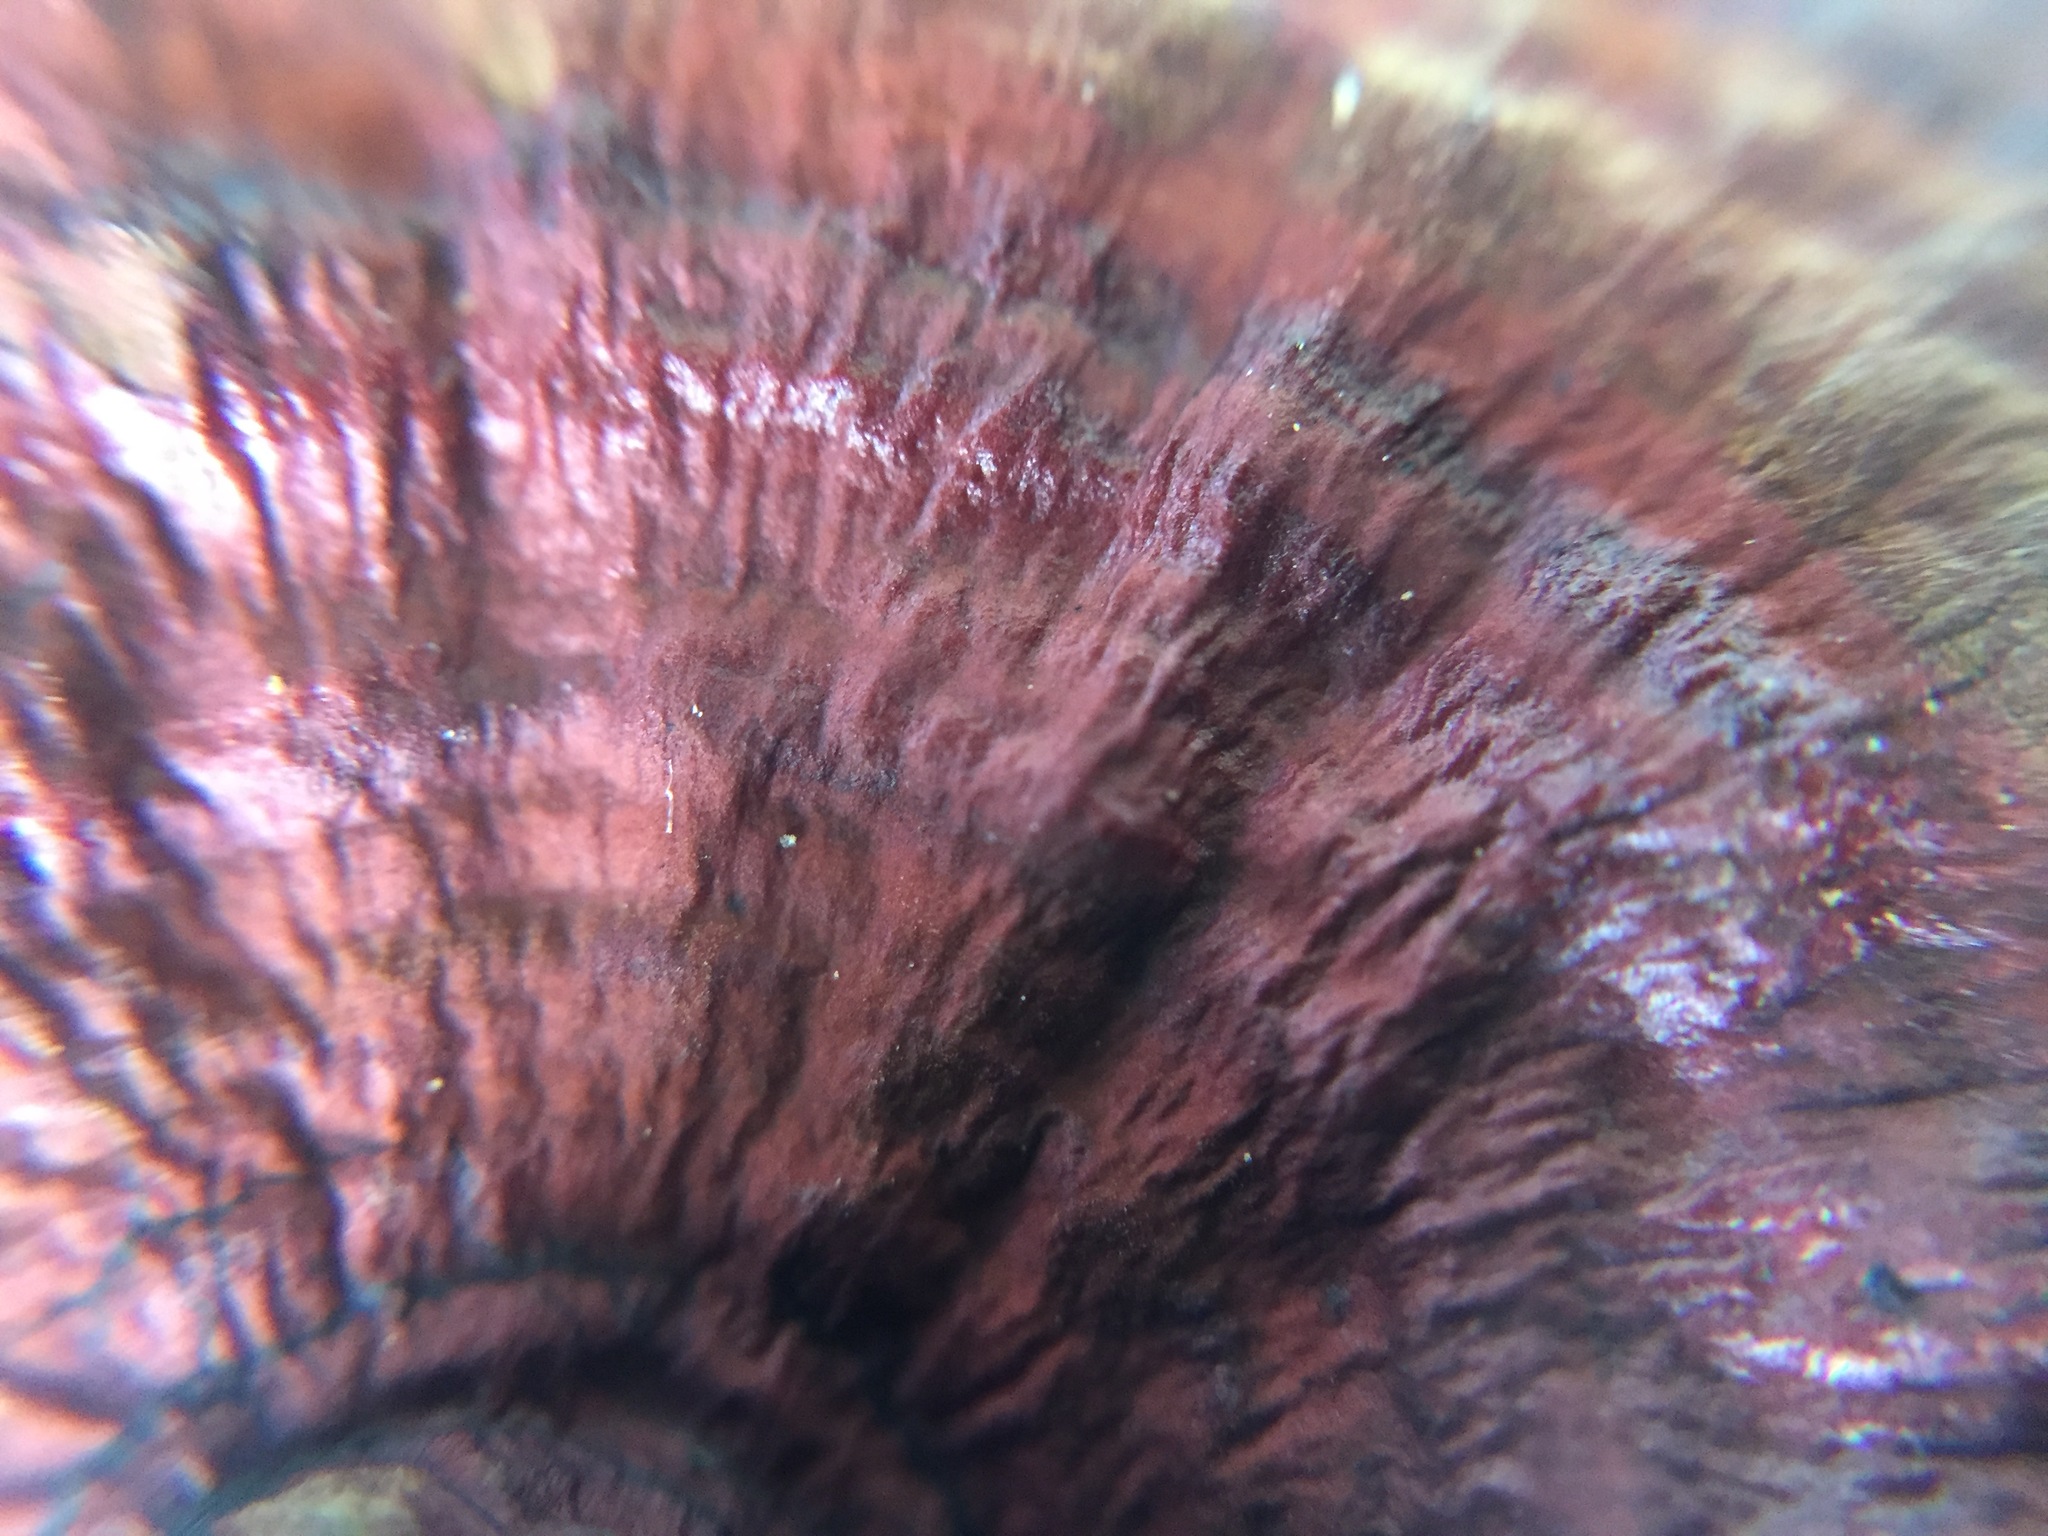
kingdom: Fungi
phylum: Basidiomycota
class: Agaricomycetes
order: Polyporales
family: Polyporaceae
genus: Lenzites
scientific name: Lenzites styracinus
